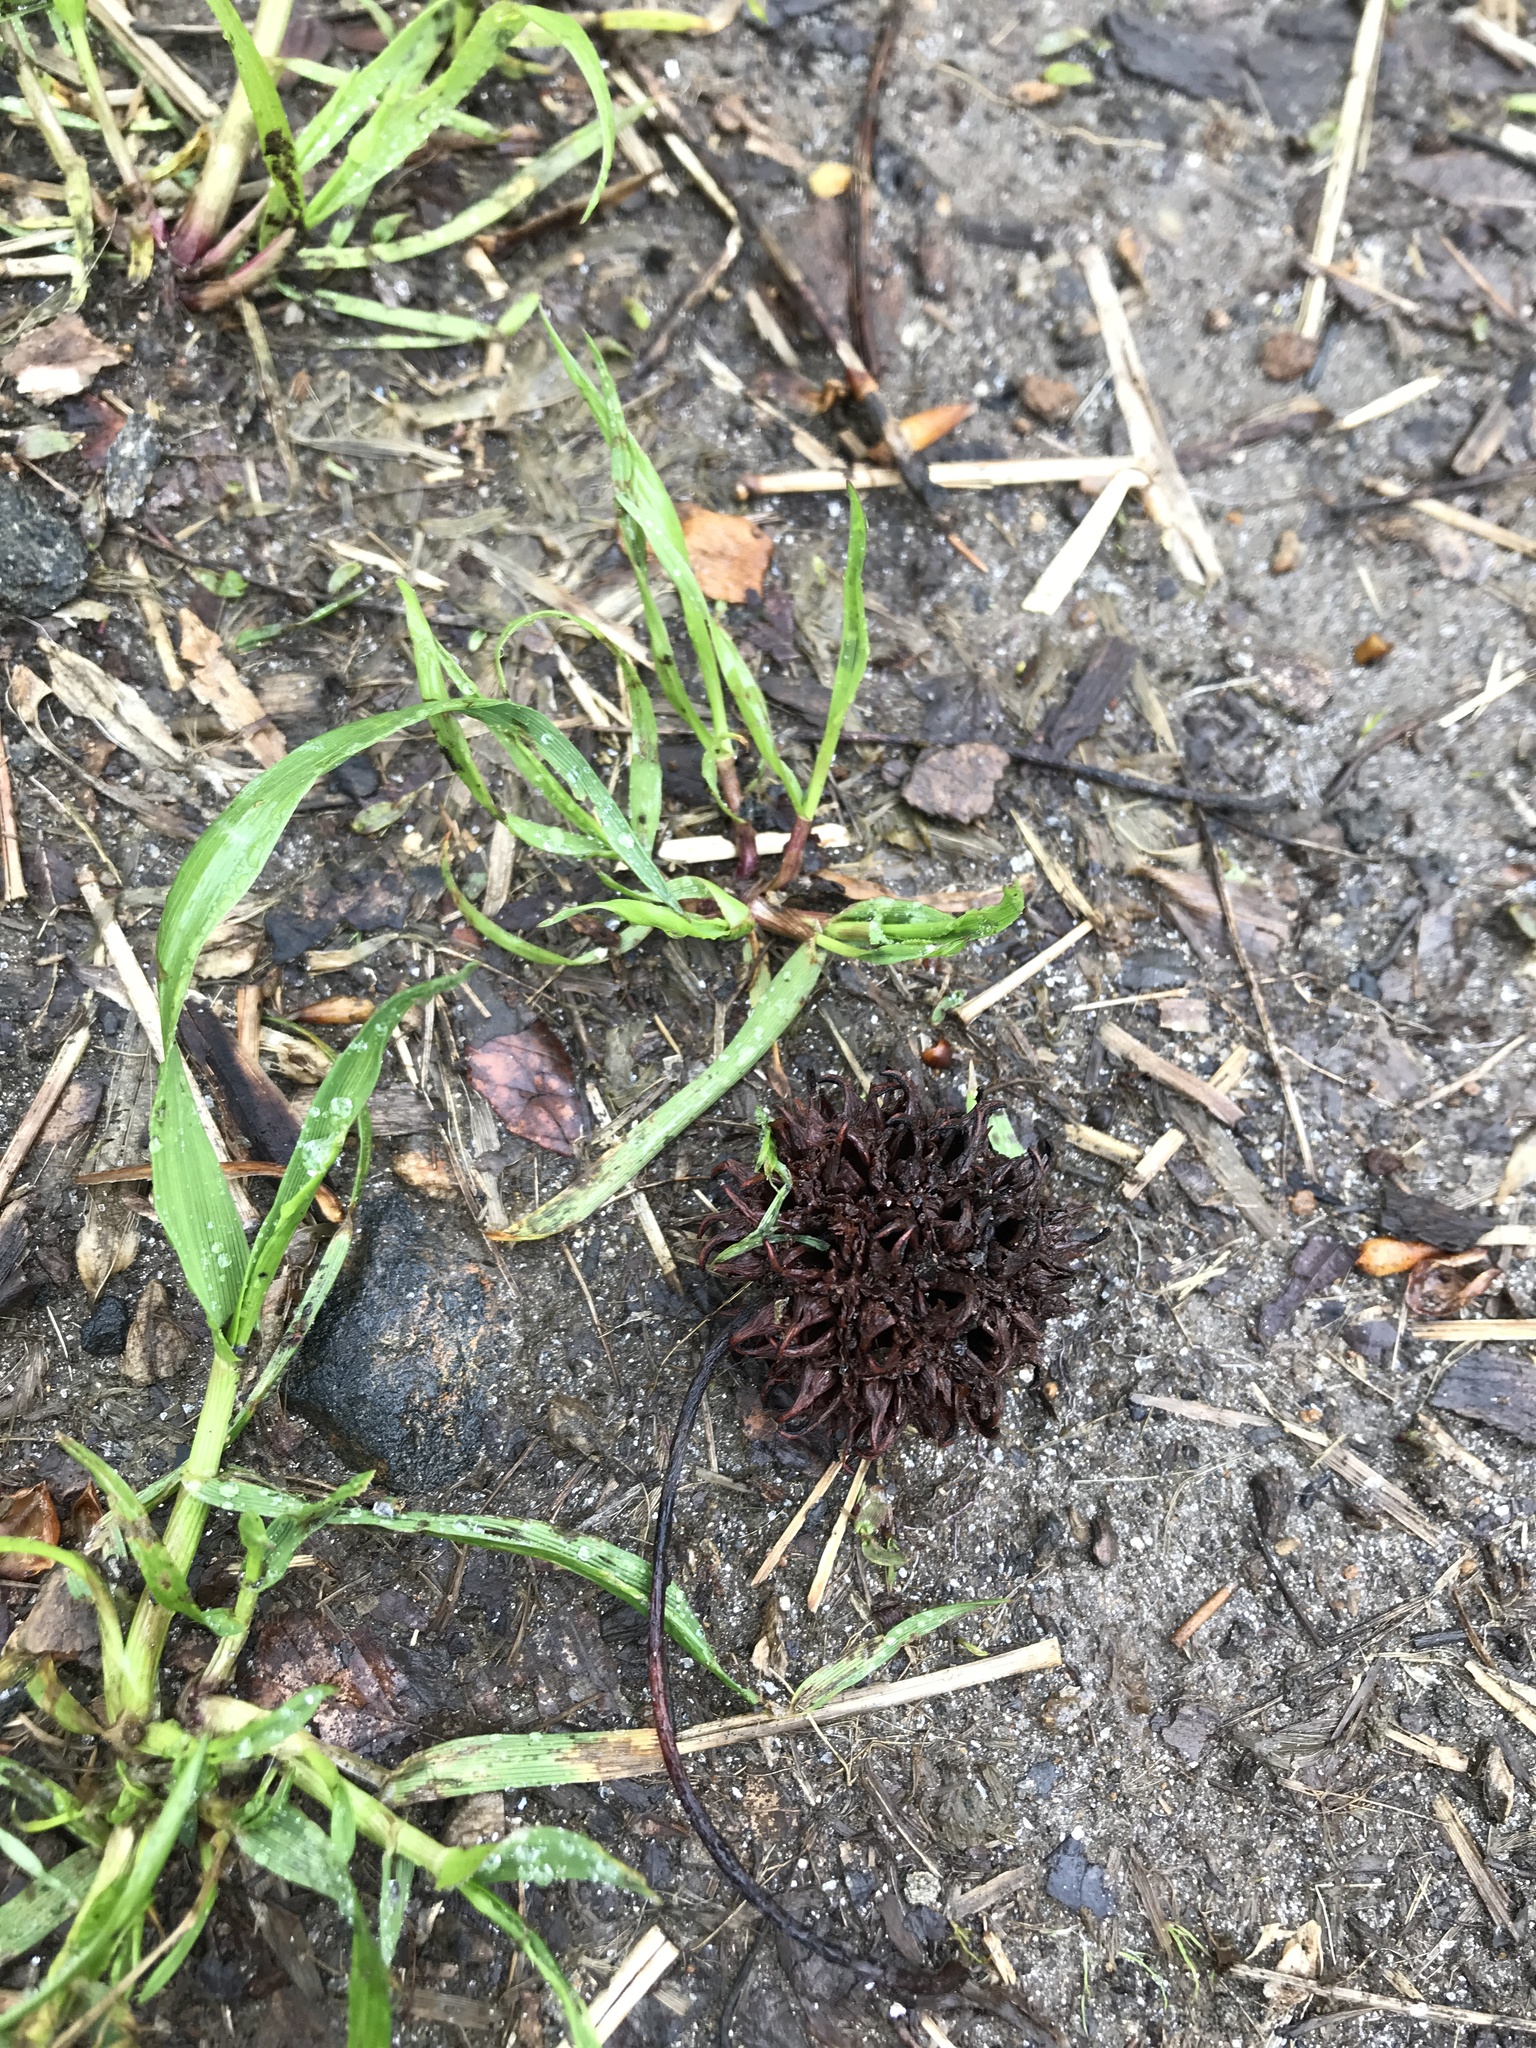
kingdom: Plantae
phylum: Tracheophyta
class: Magnoliopsida
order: Saxifragales
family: Altingiaceae
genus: Liquidambar
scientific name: Liquidambar styraciflua
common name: Sweet gum
